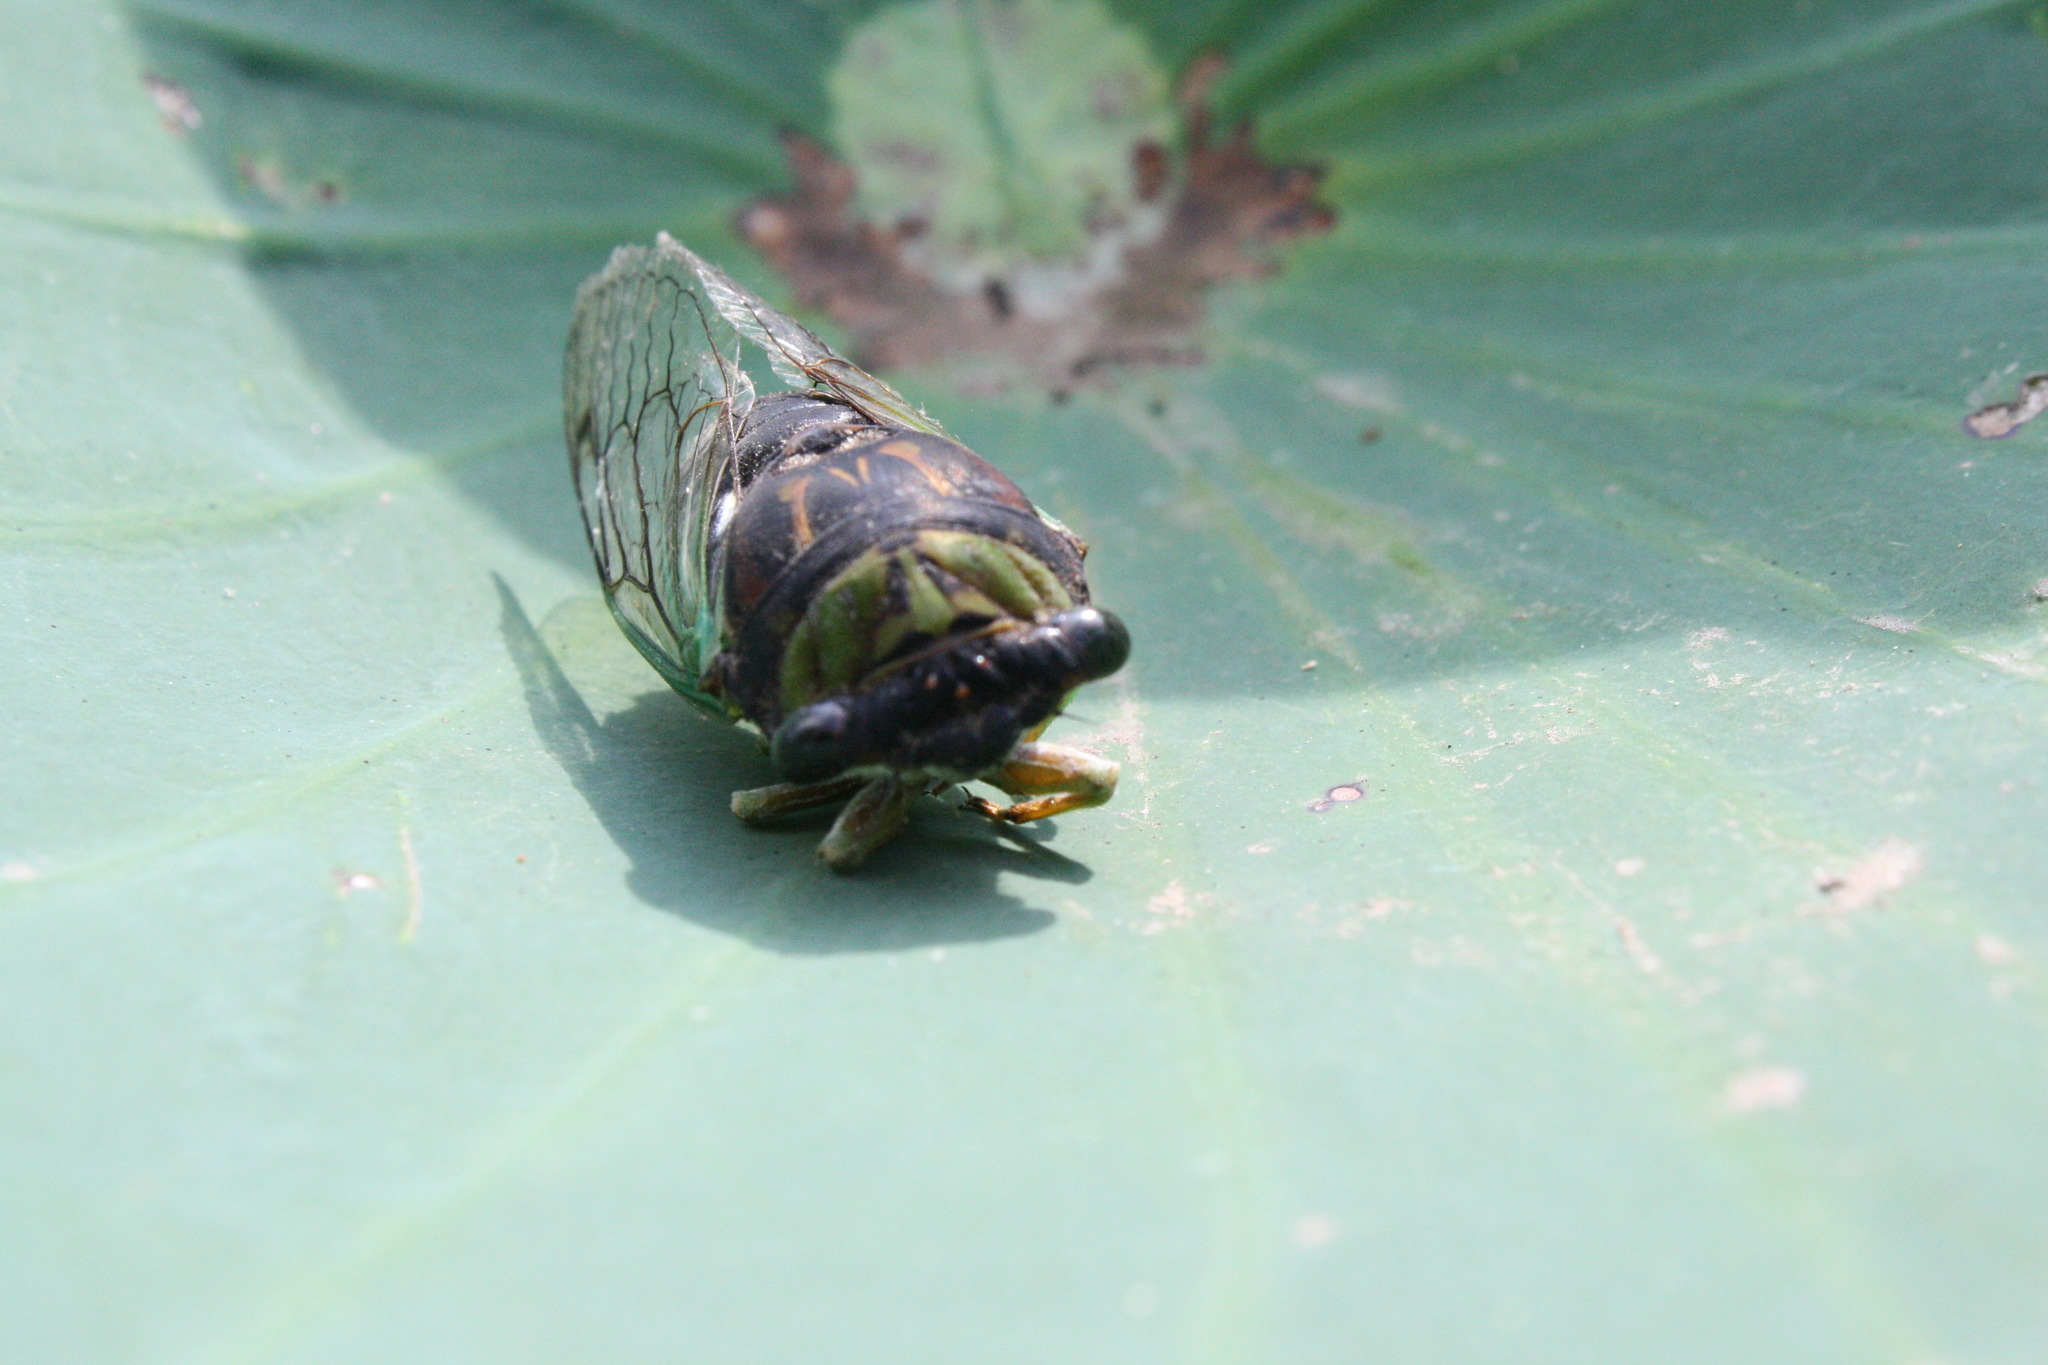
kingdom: Animalia
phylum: Arthropoda
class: Insecta
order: Hemiptera
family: Cicadidae
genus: Neotibicen
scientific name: Neotibicen tibicen
